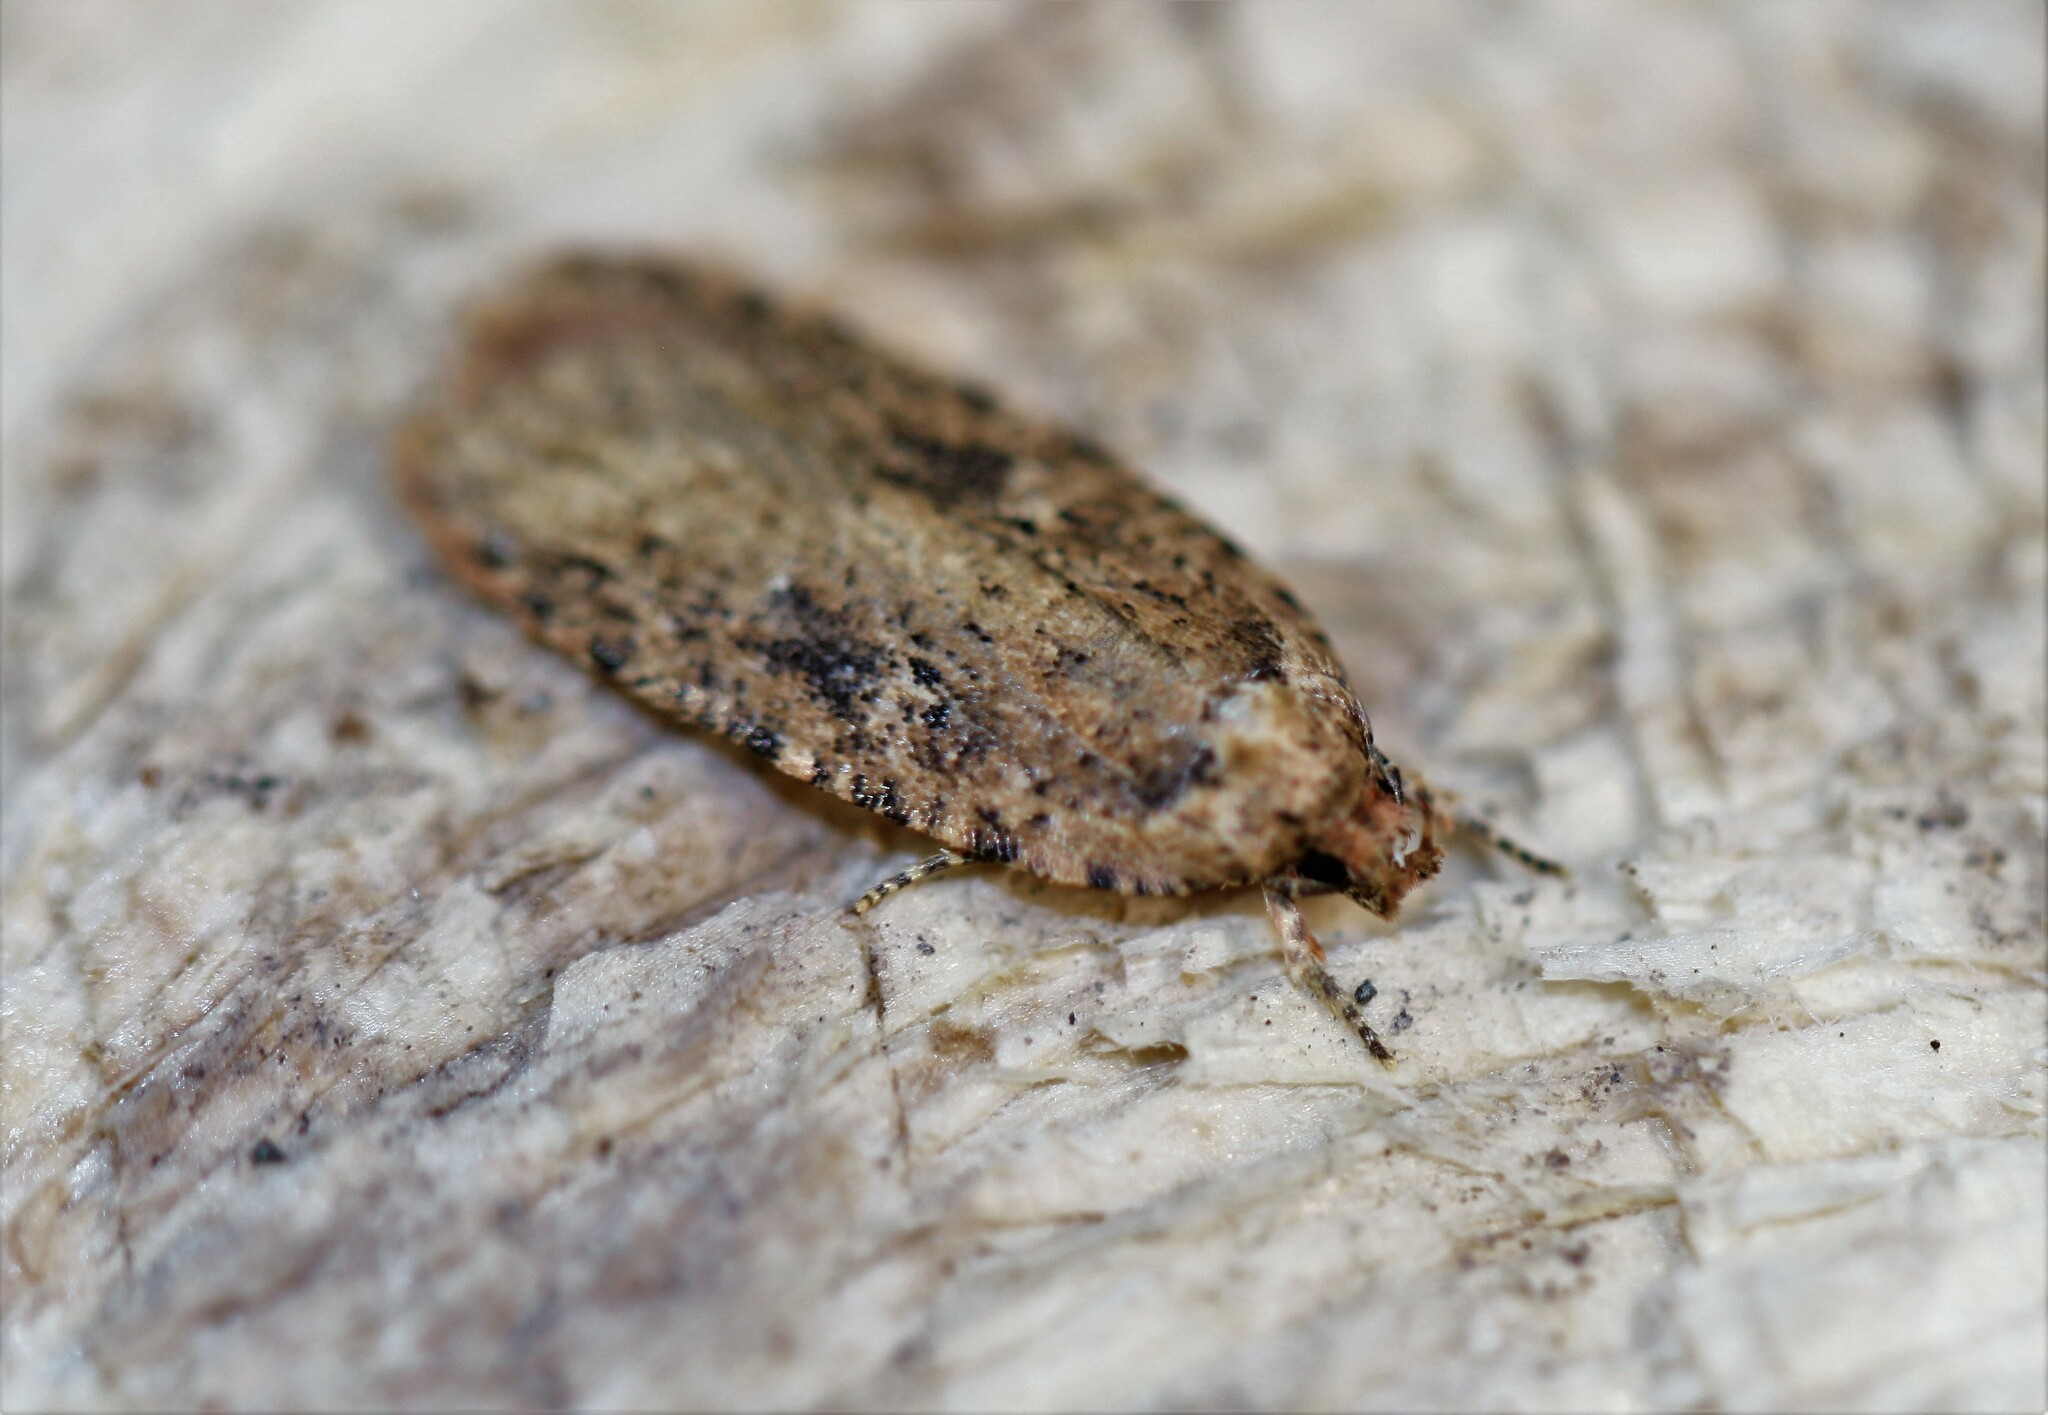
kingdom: Animalia
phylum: Arthropoda
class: Insecta
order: Lepidoptera
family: Depressariidae
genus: Agonopterix
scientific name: Agonopterix pulvipennella
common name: Goldenrod leafffolder
